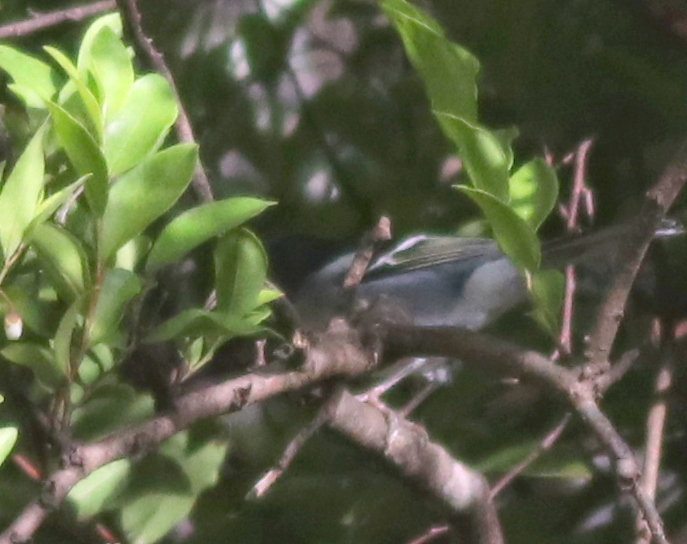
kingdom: Animalia
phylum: Chordata
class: Aves
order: Passeriformes
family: Fringillidae
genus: Fringilla
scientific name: Fringilla canariensis
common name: Canary islands chaffinch
